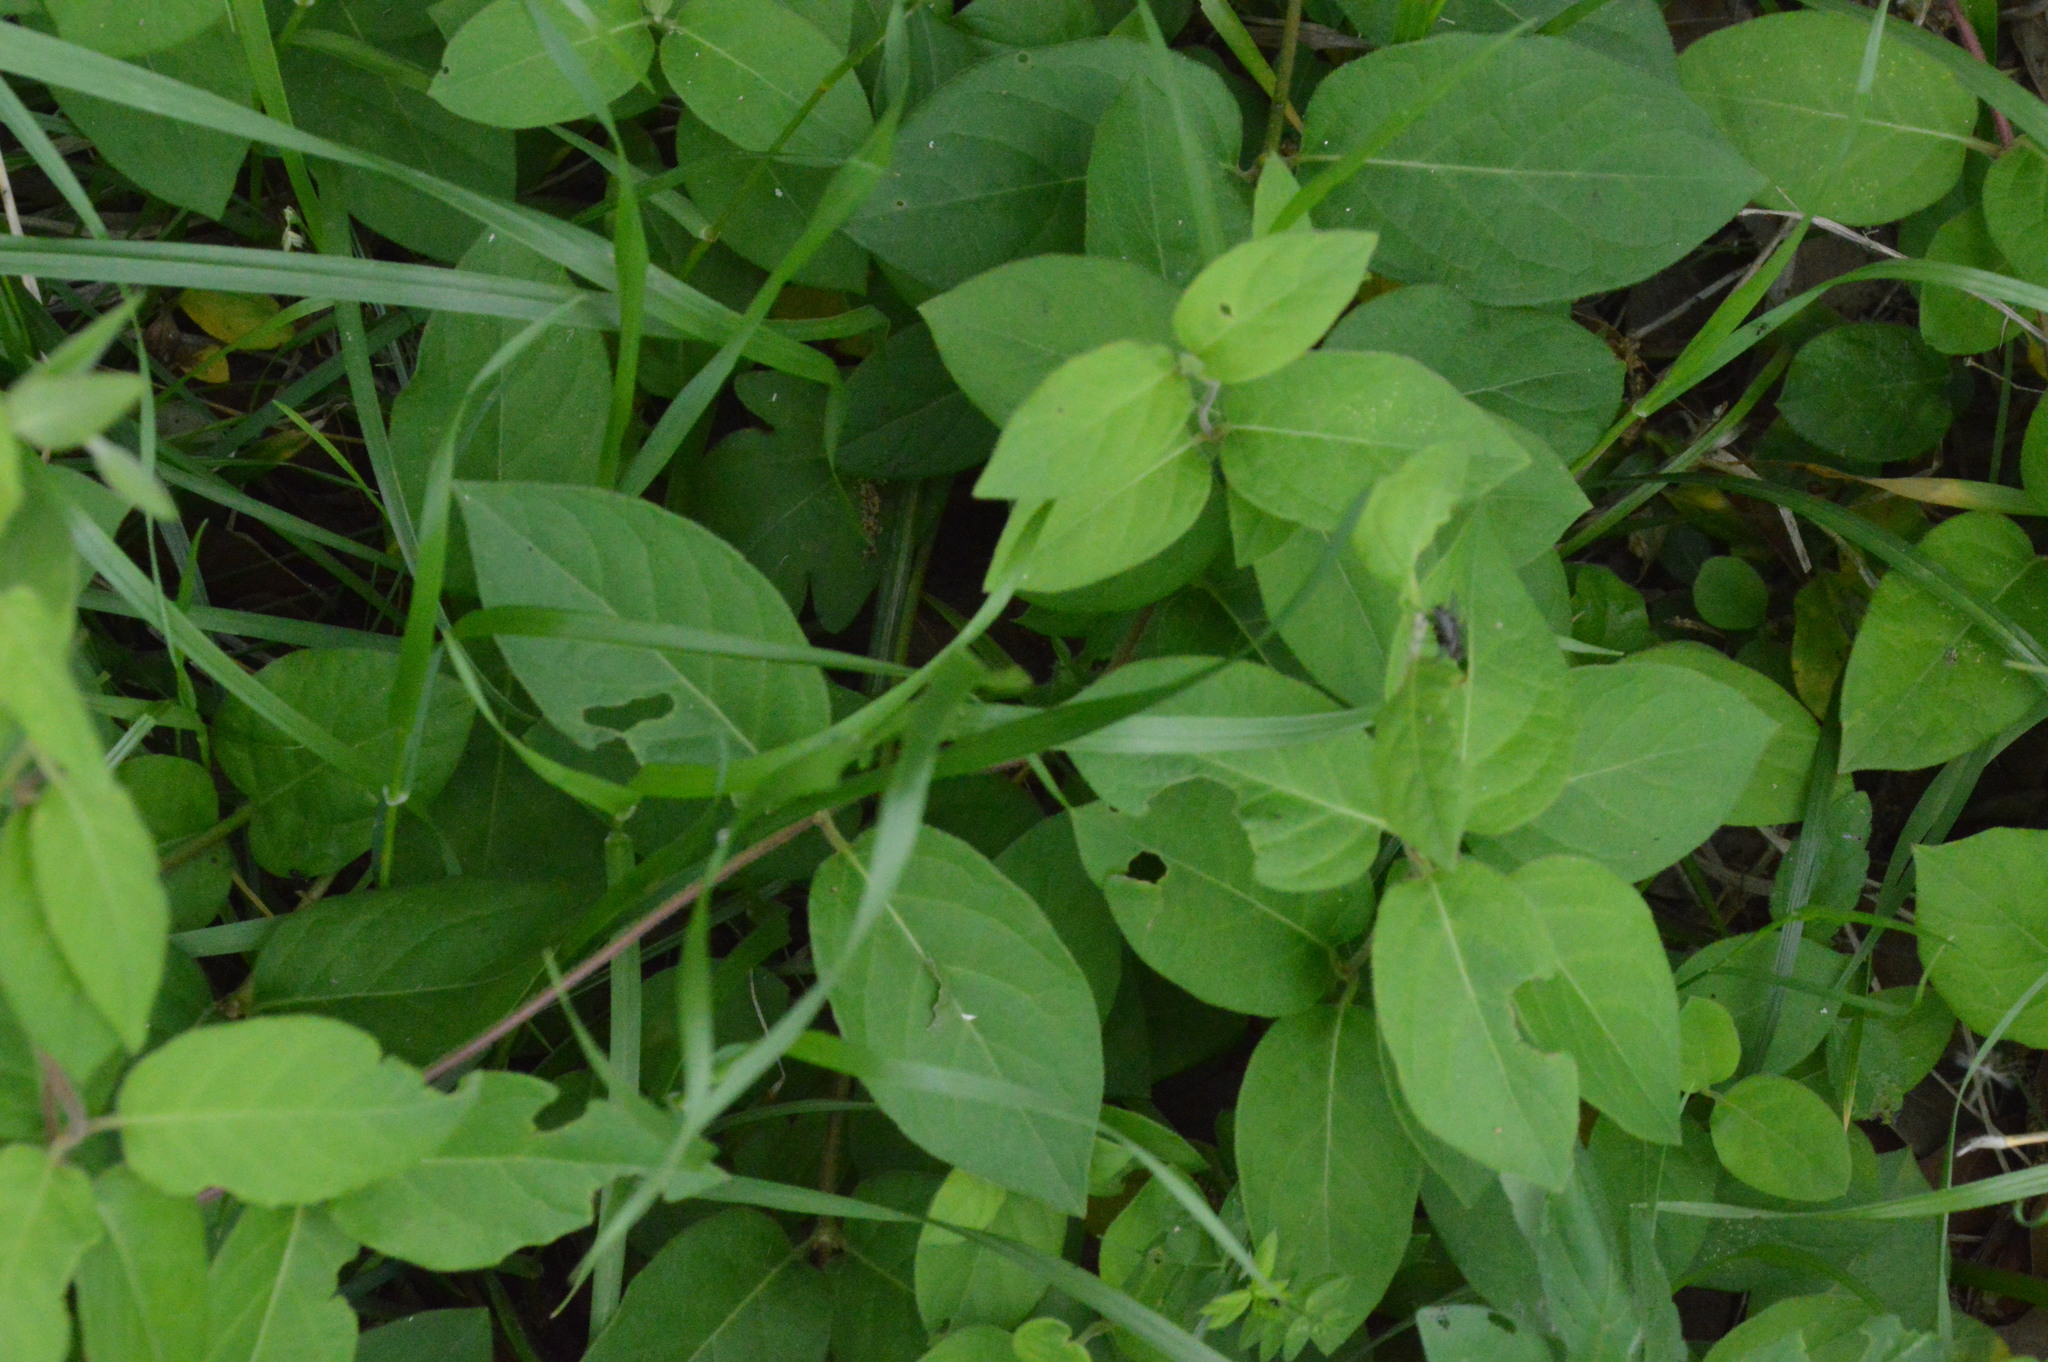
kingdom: Plantae
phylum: Tracheophyta
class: Magnoliopsida
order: Dipsacales
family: Caprifoliaceae
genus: Lonicera
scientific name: Lonicera japonica
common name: Japanese honeysuckle
